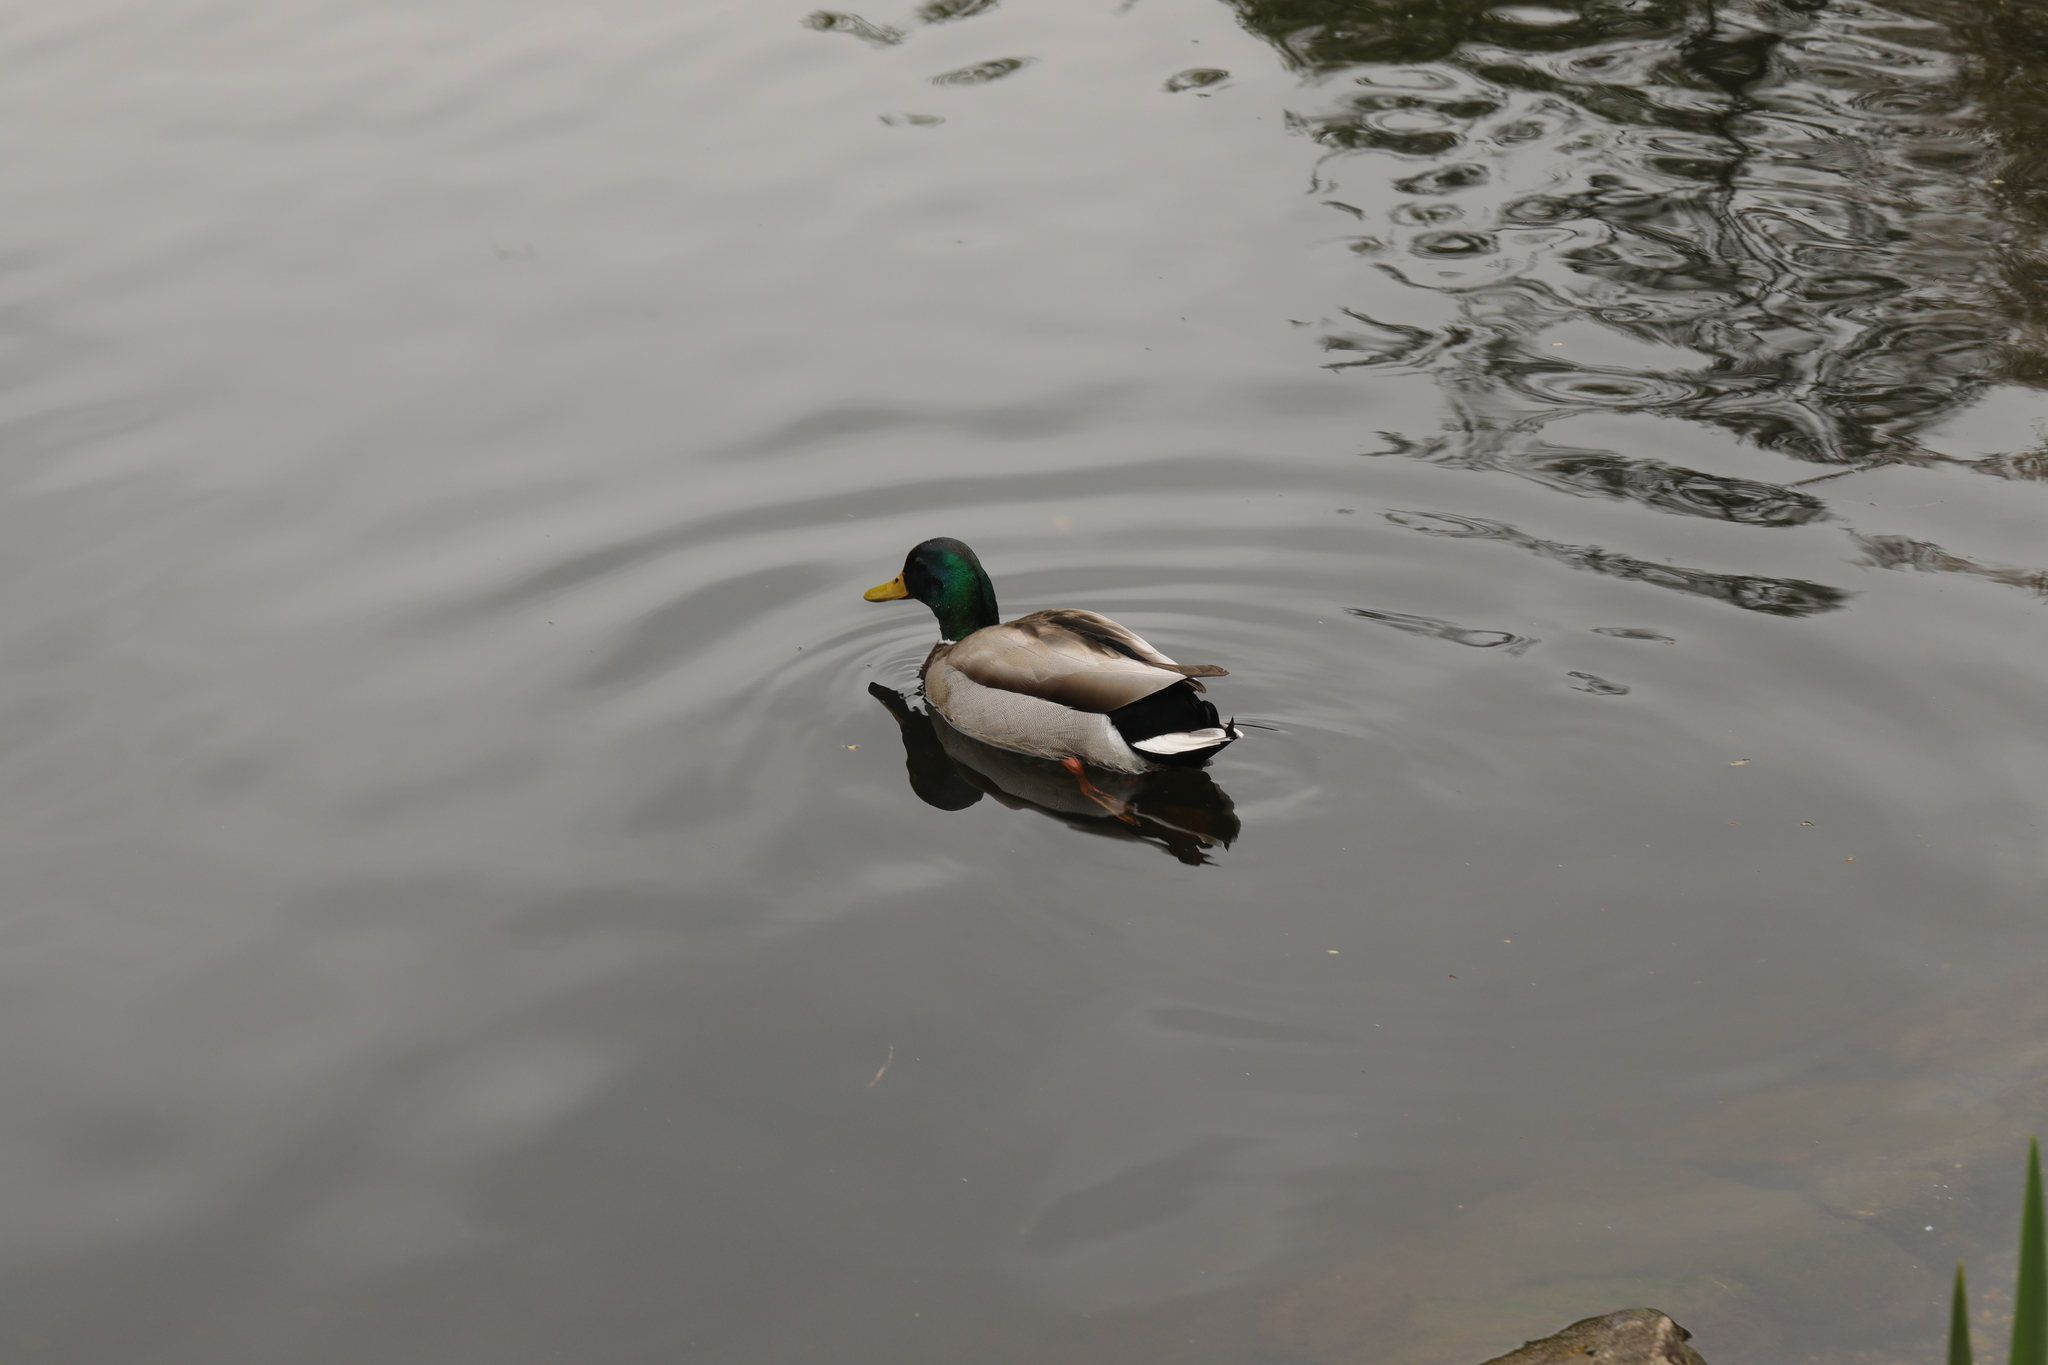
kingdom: Animalia
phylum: Chordata
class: Aves
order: Anseriformes
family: Anatidae
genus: Anas
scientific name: Anas platyrhynchos
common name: Mallard
